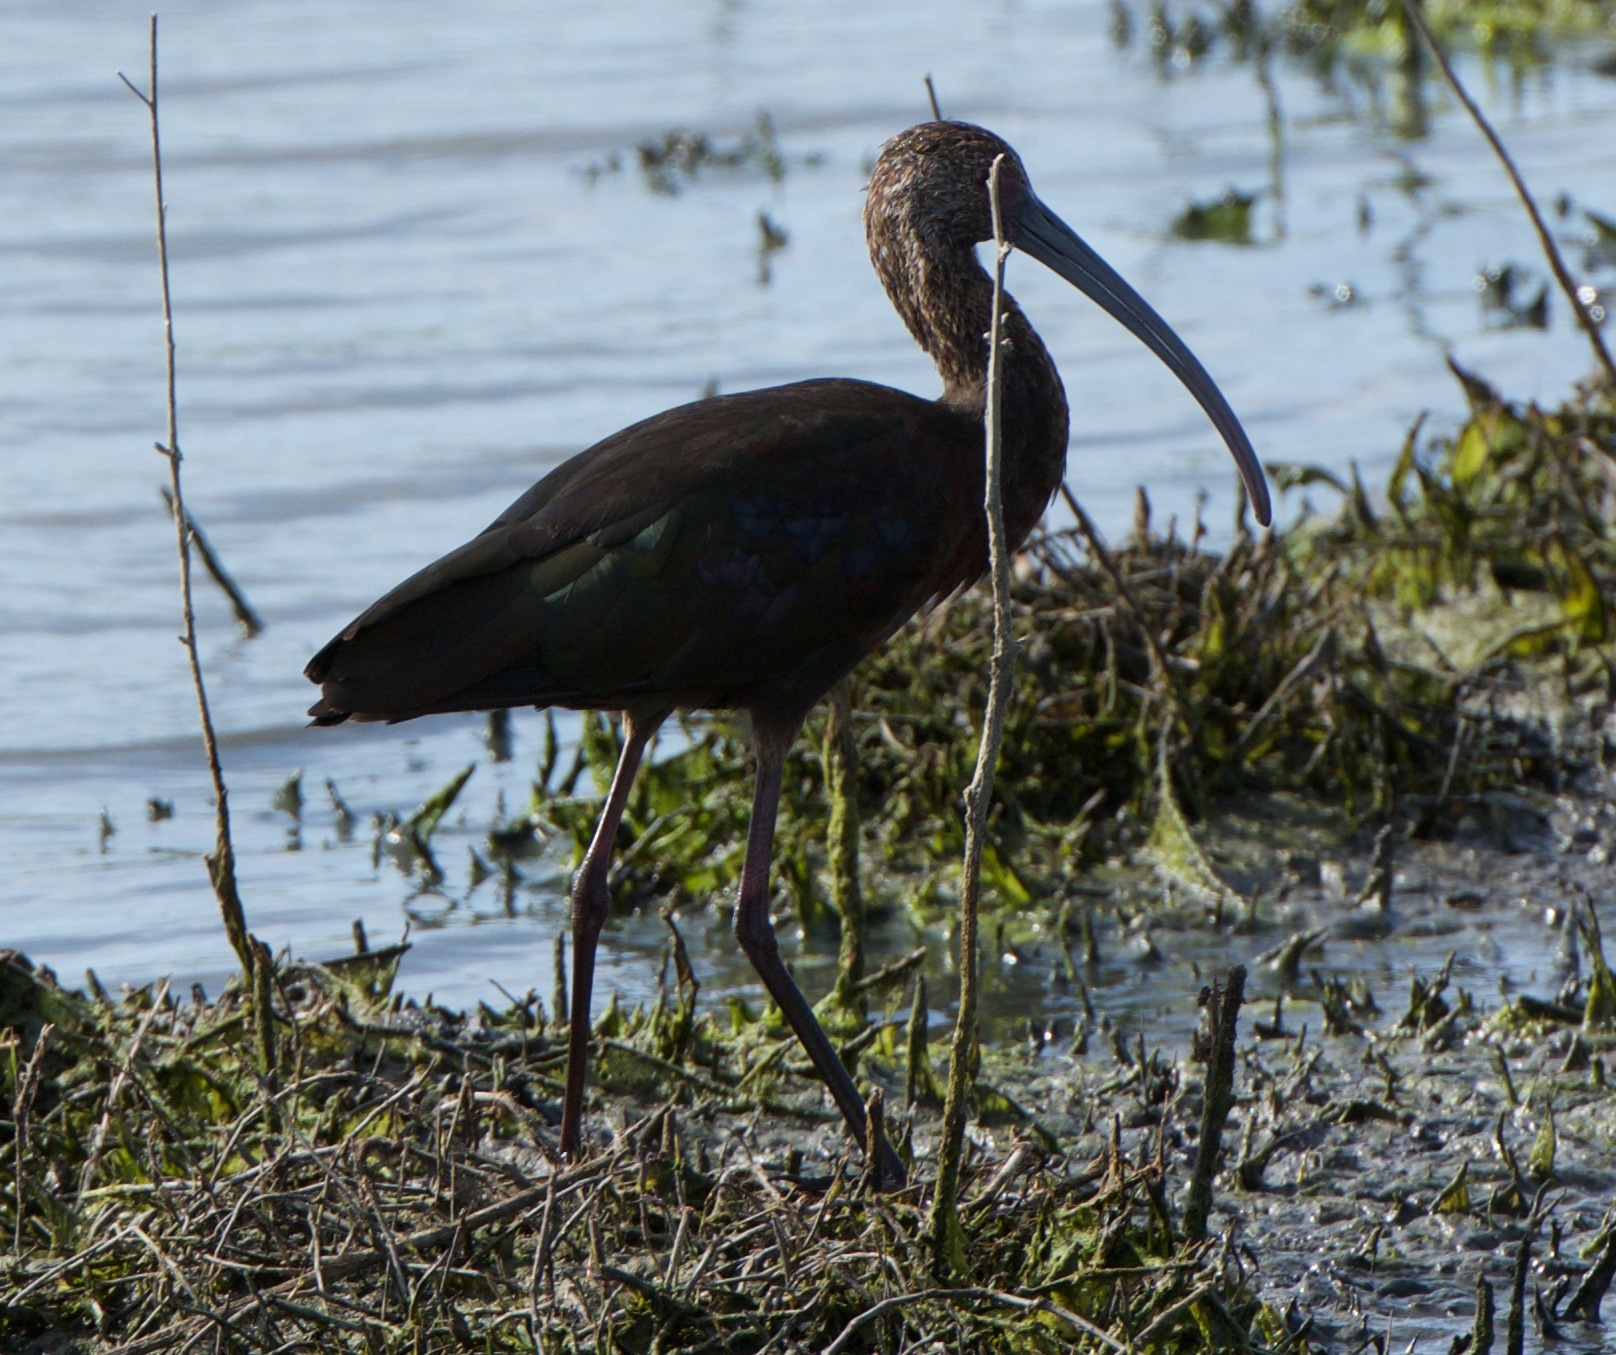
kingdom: Animalia
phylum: Chordata
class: Aves
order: Pelecaniformes
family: Threskiornithidae
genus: Plegadis
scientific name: Plegadis chihi
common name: White-faced ibis
